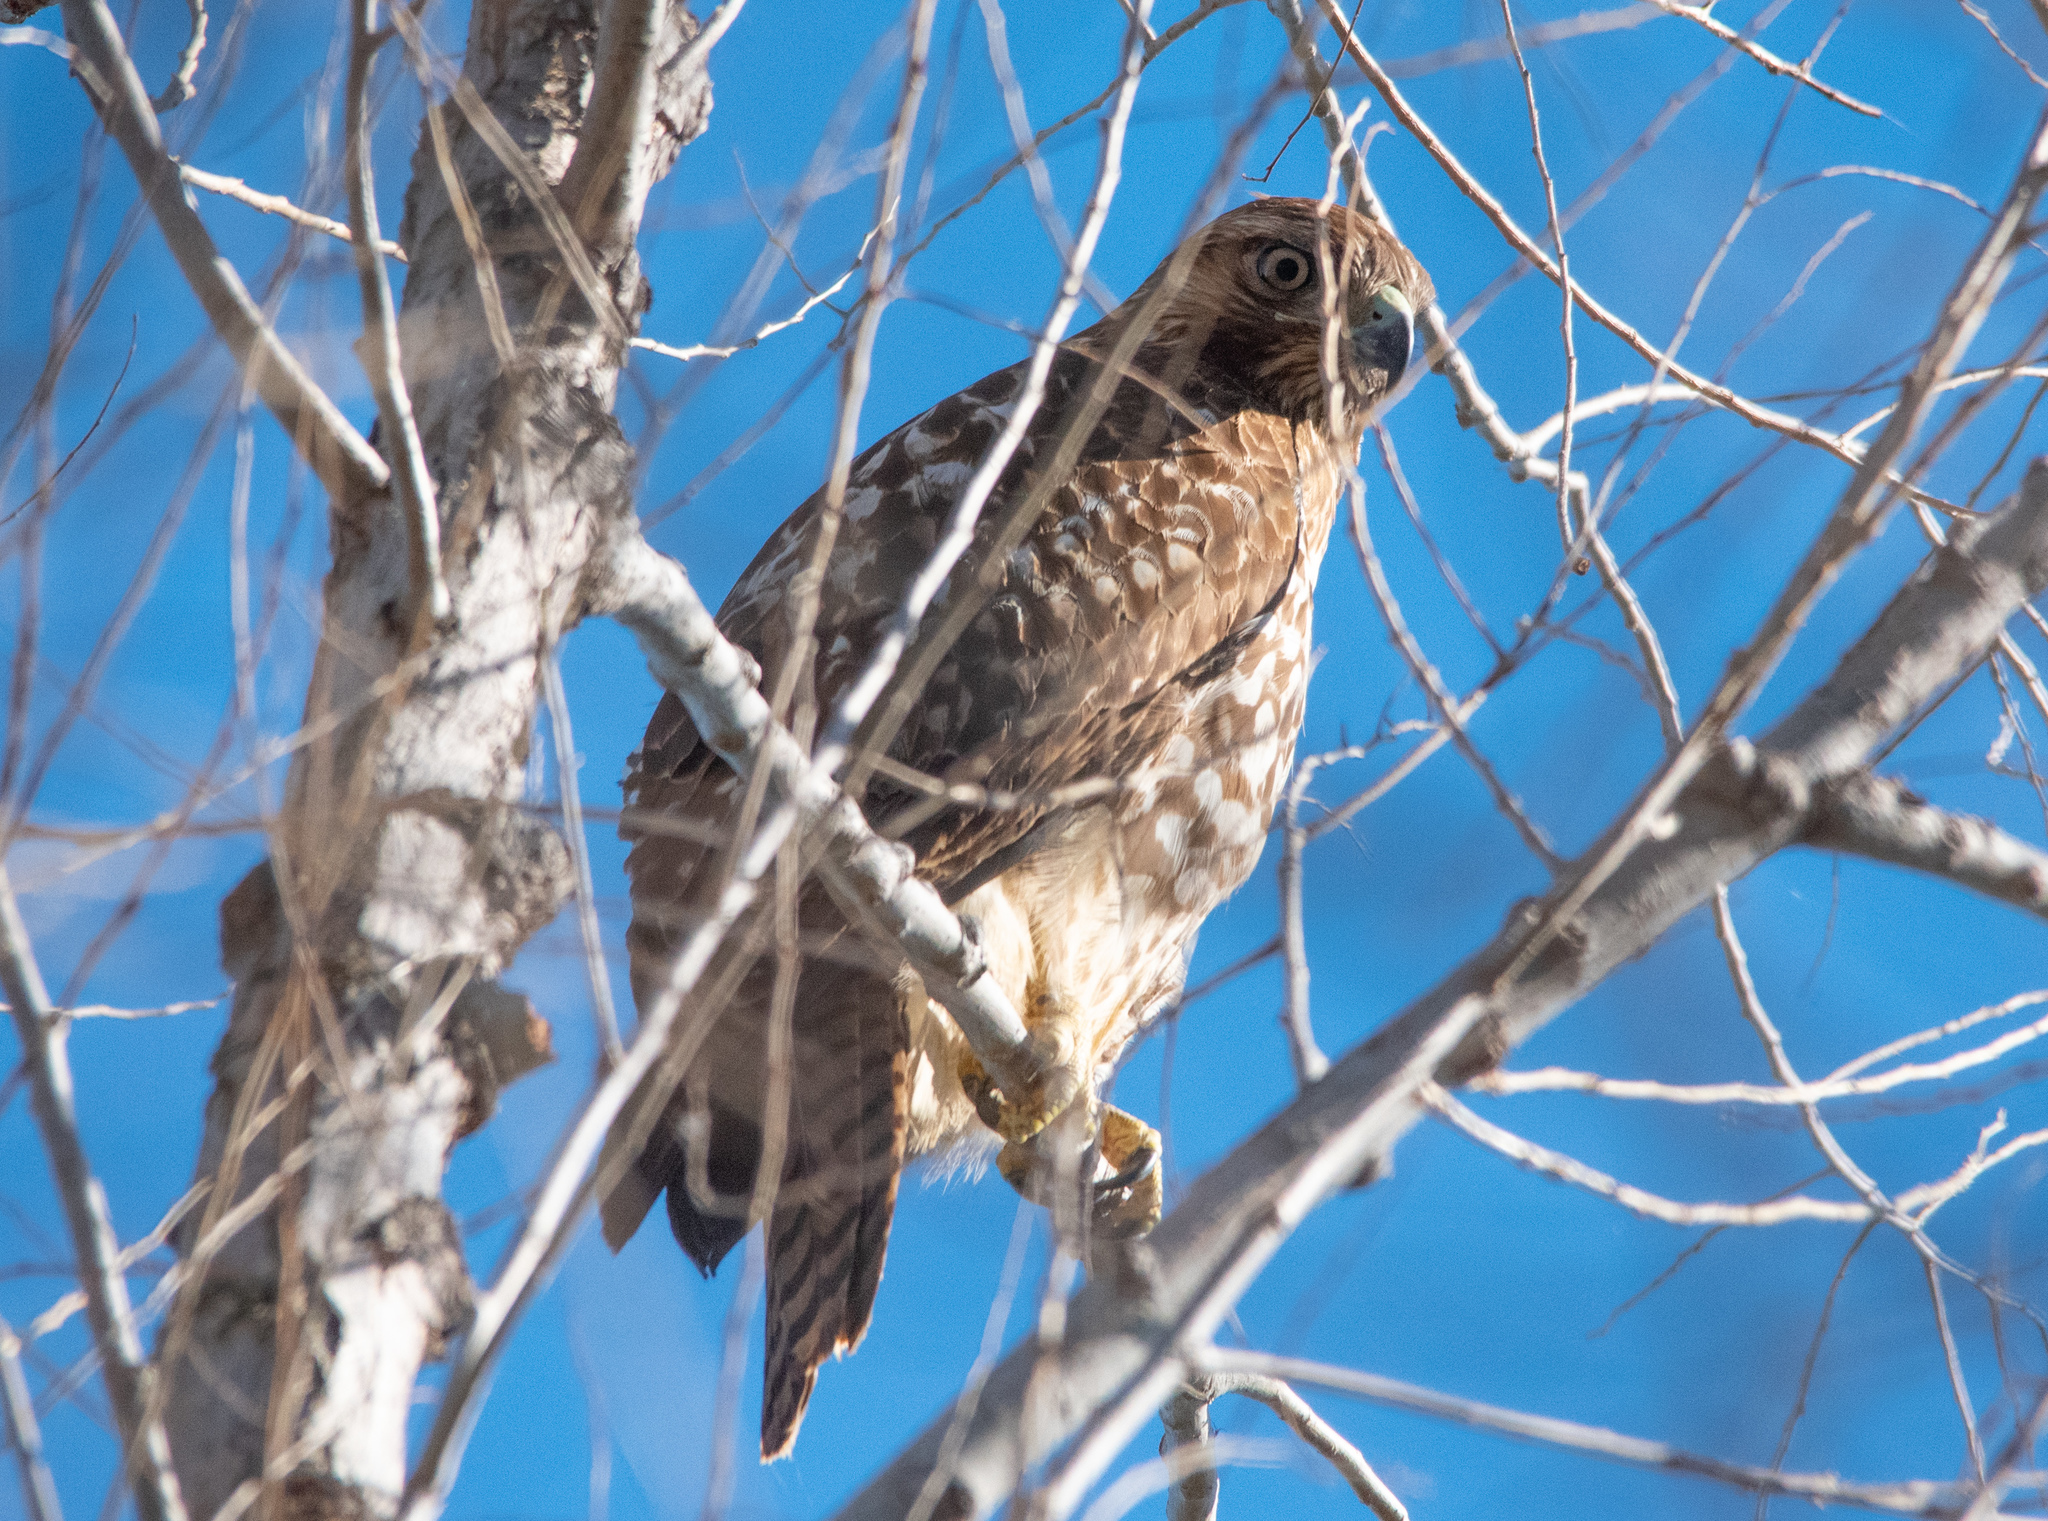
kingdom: Animalia
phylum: Chordata
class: Aves
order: Accipitriformes
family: Accipitridae
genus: Buteo
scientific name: Buteo jamaicensis
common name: Red-tailed hawk
